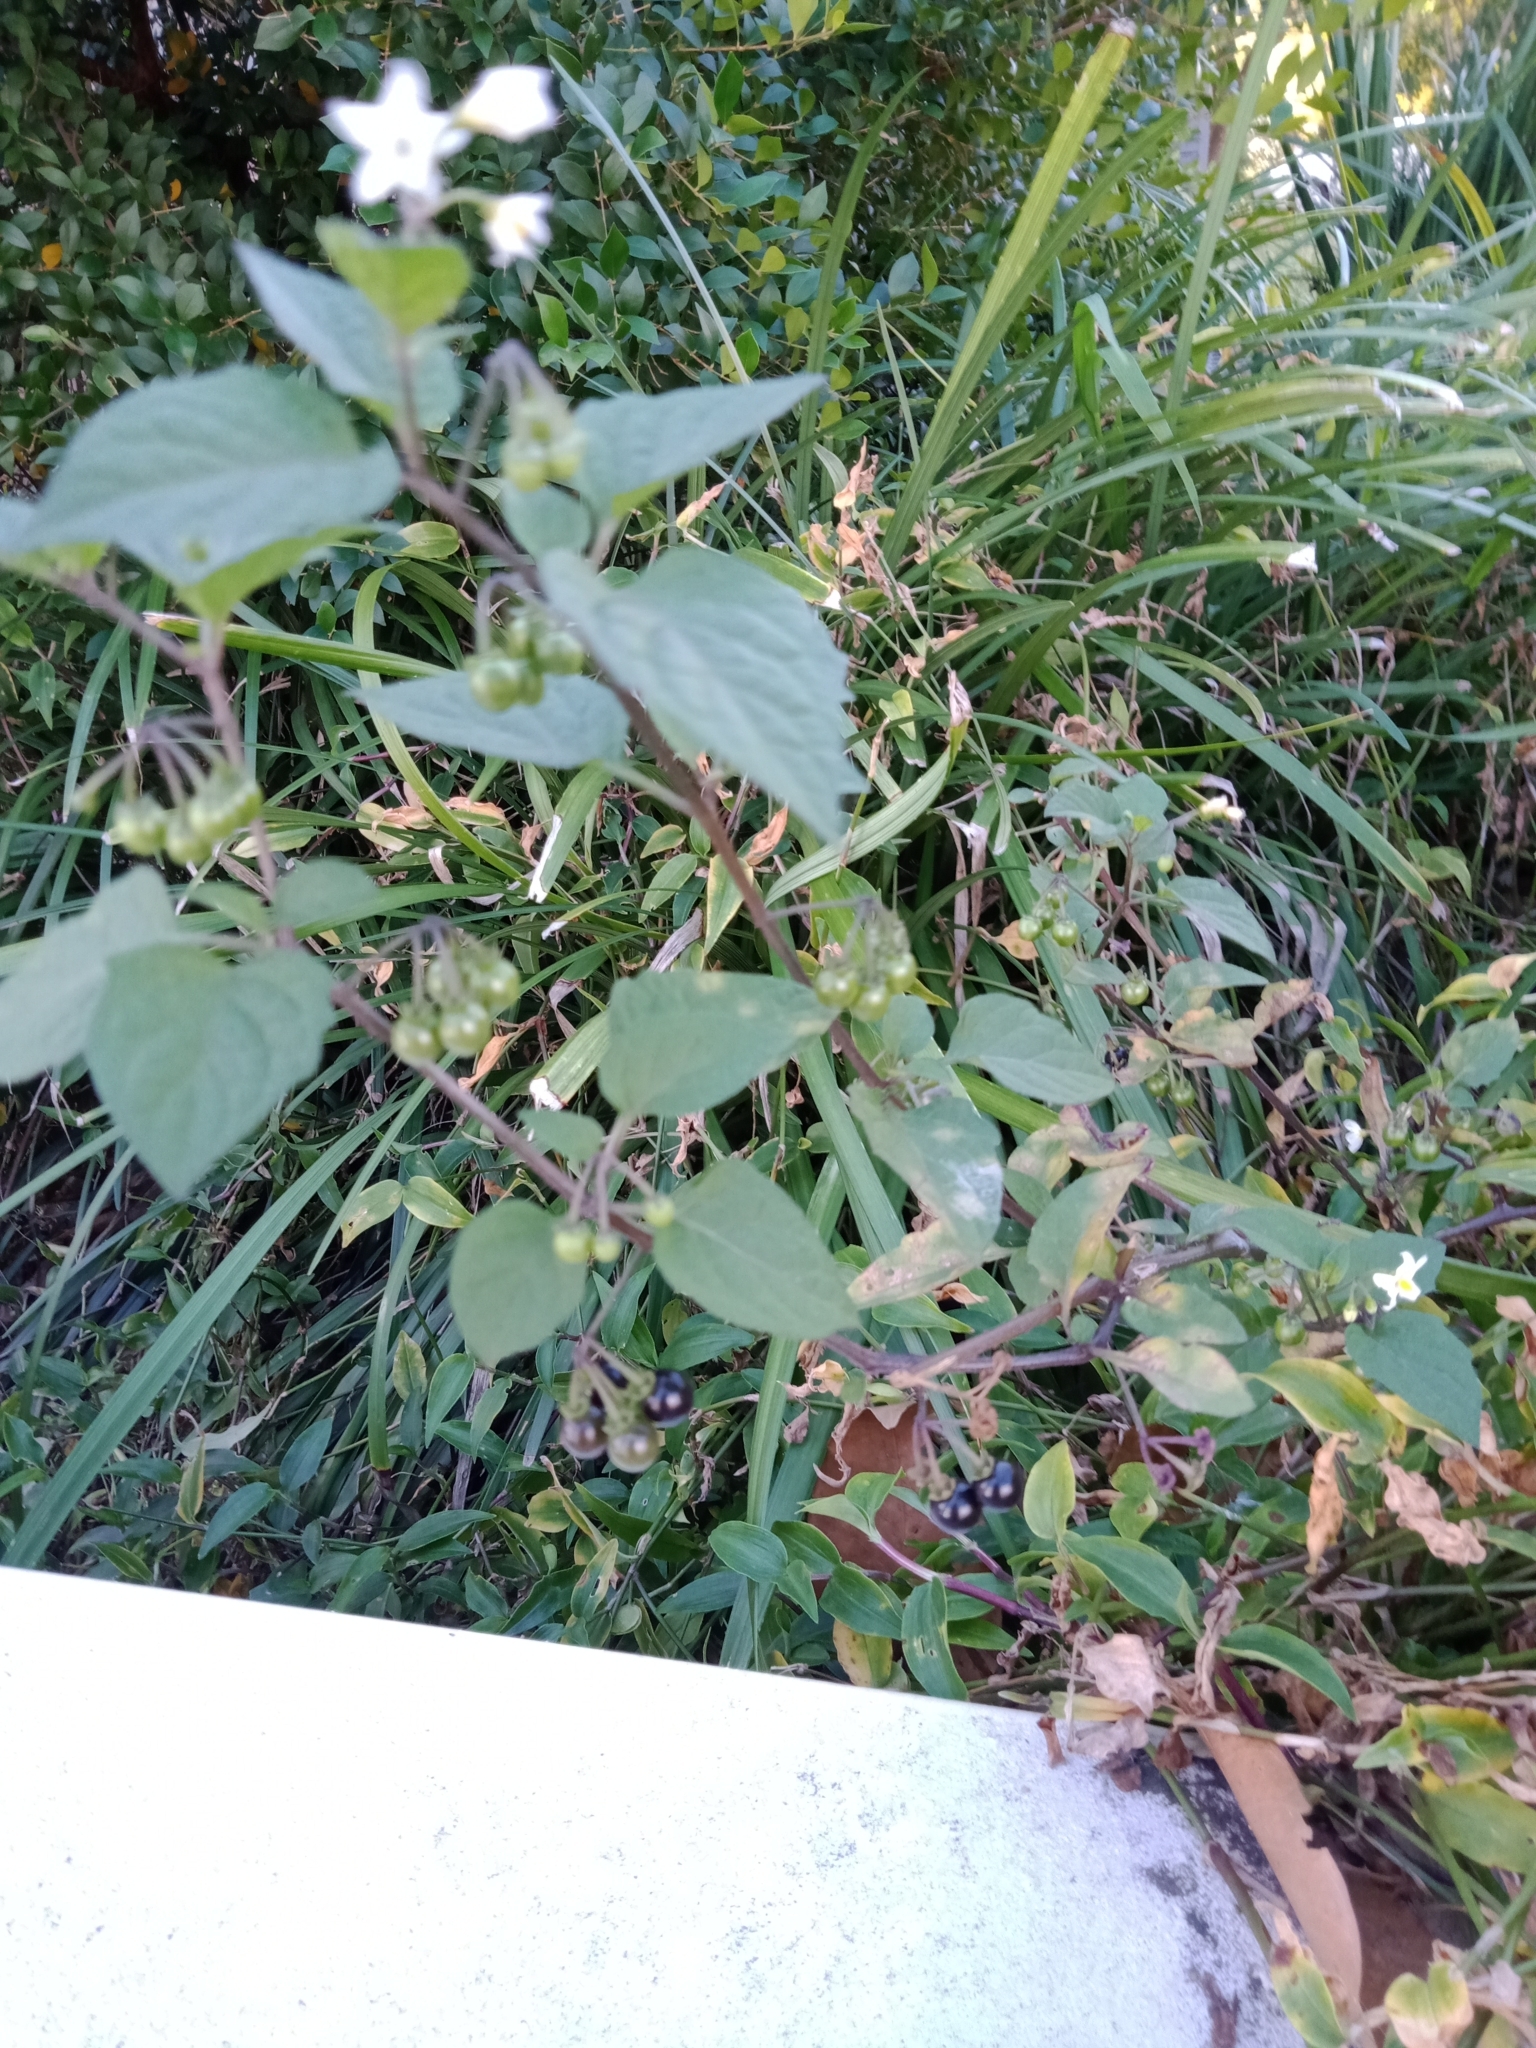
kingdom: Plantae
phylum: Tracheophyta
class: Magnoliopsida
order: Solanales
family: Solanaceae
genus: Solanum
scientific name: Solanum nigrum
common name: Black nightshade
